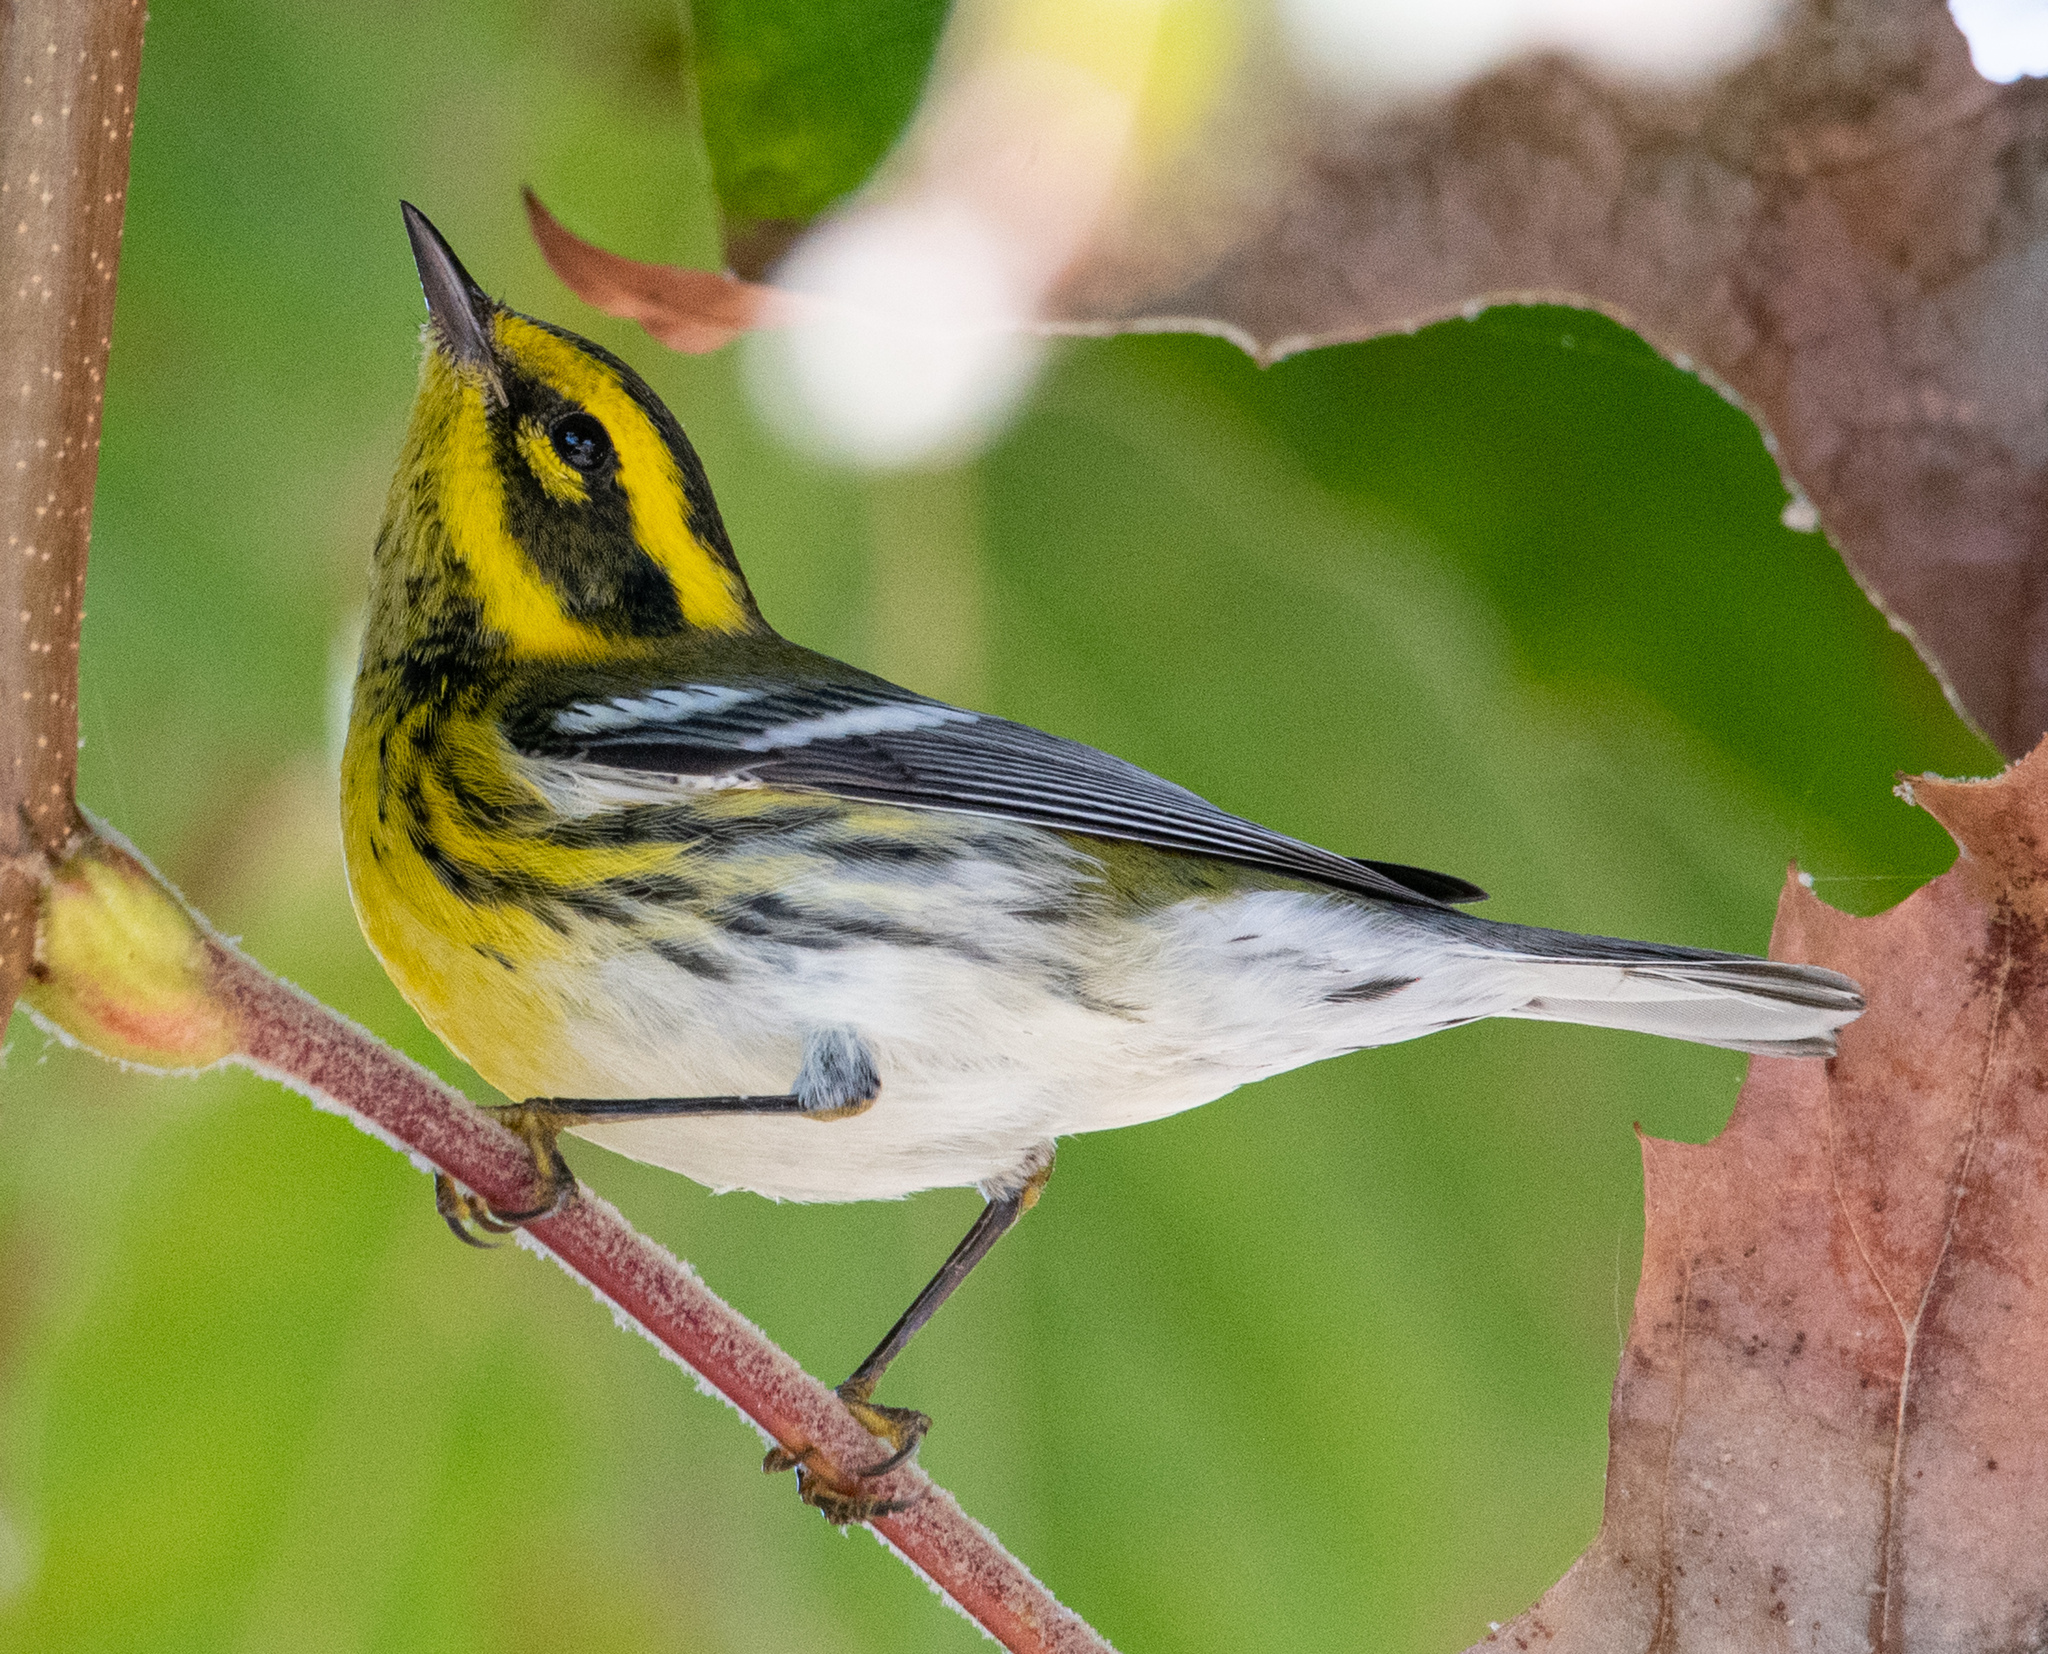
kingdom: Animalia
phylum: Chordata
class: Aves
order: Passeriformes
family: Parulidae
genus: Setophaga
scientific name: Setophaga townsendi
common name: Townsend's warbler
